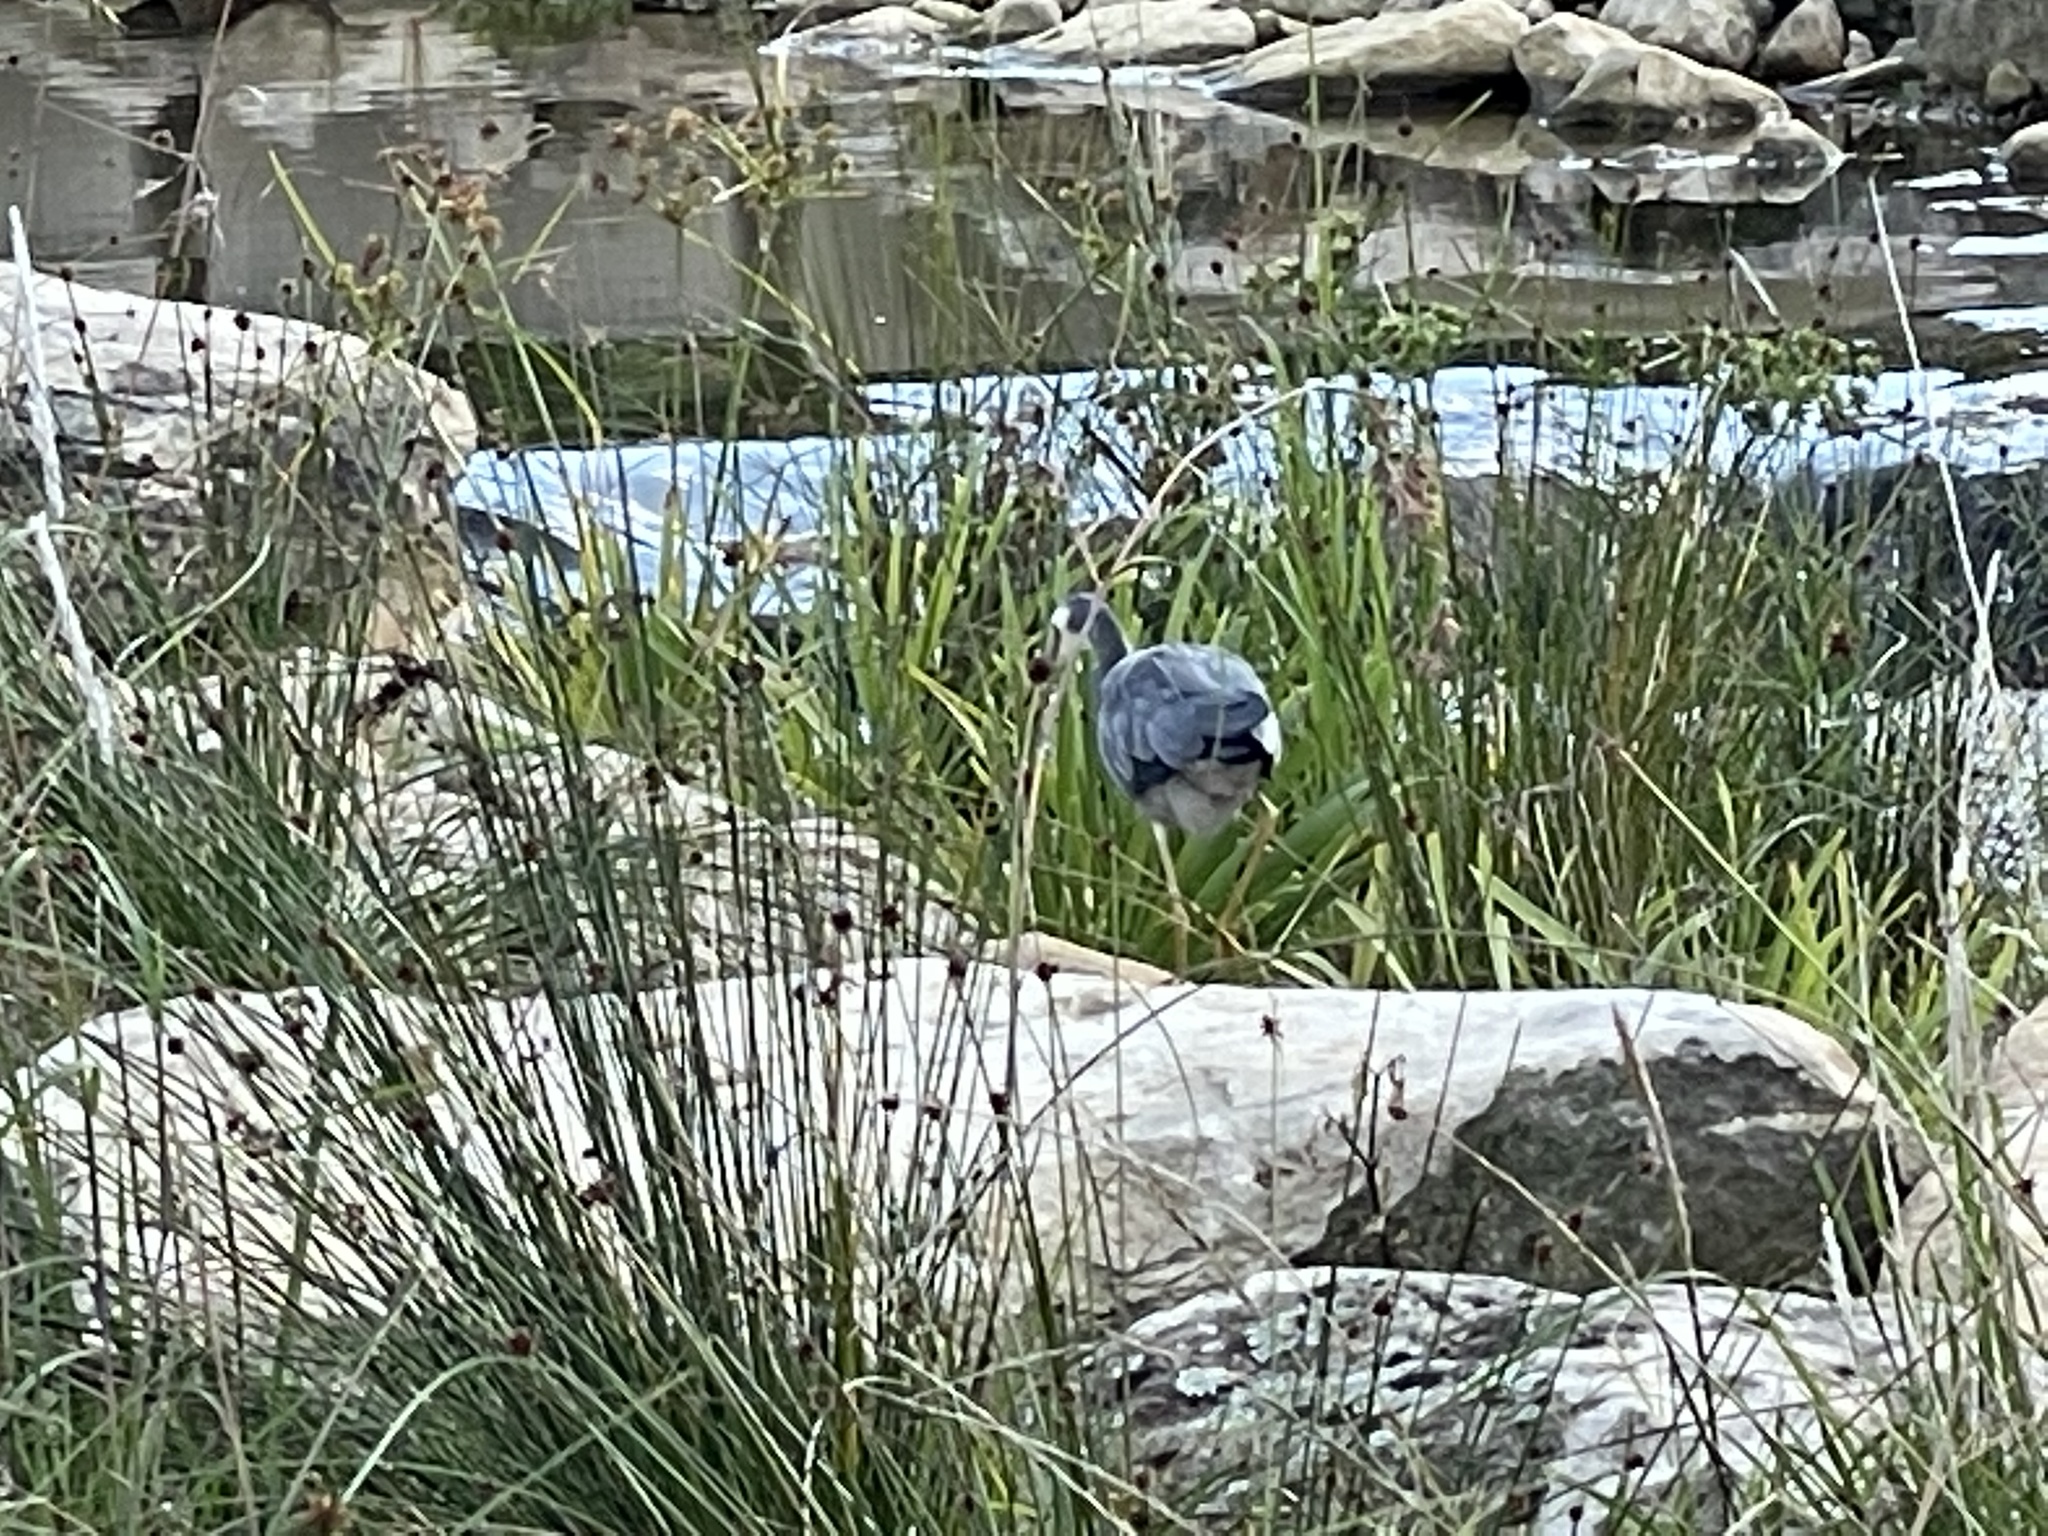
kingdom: Animalia
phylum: Chordata
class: Aves
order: Pelecaniformes
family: Ardeidae
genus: Egretta
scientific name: Egretta novaehollandiae
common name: White-faced heron
